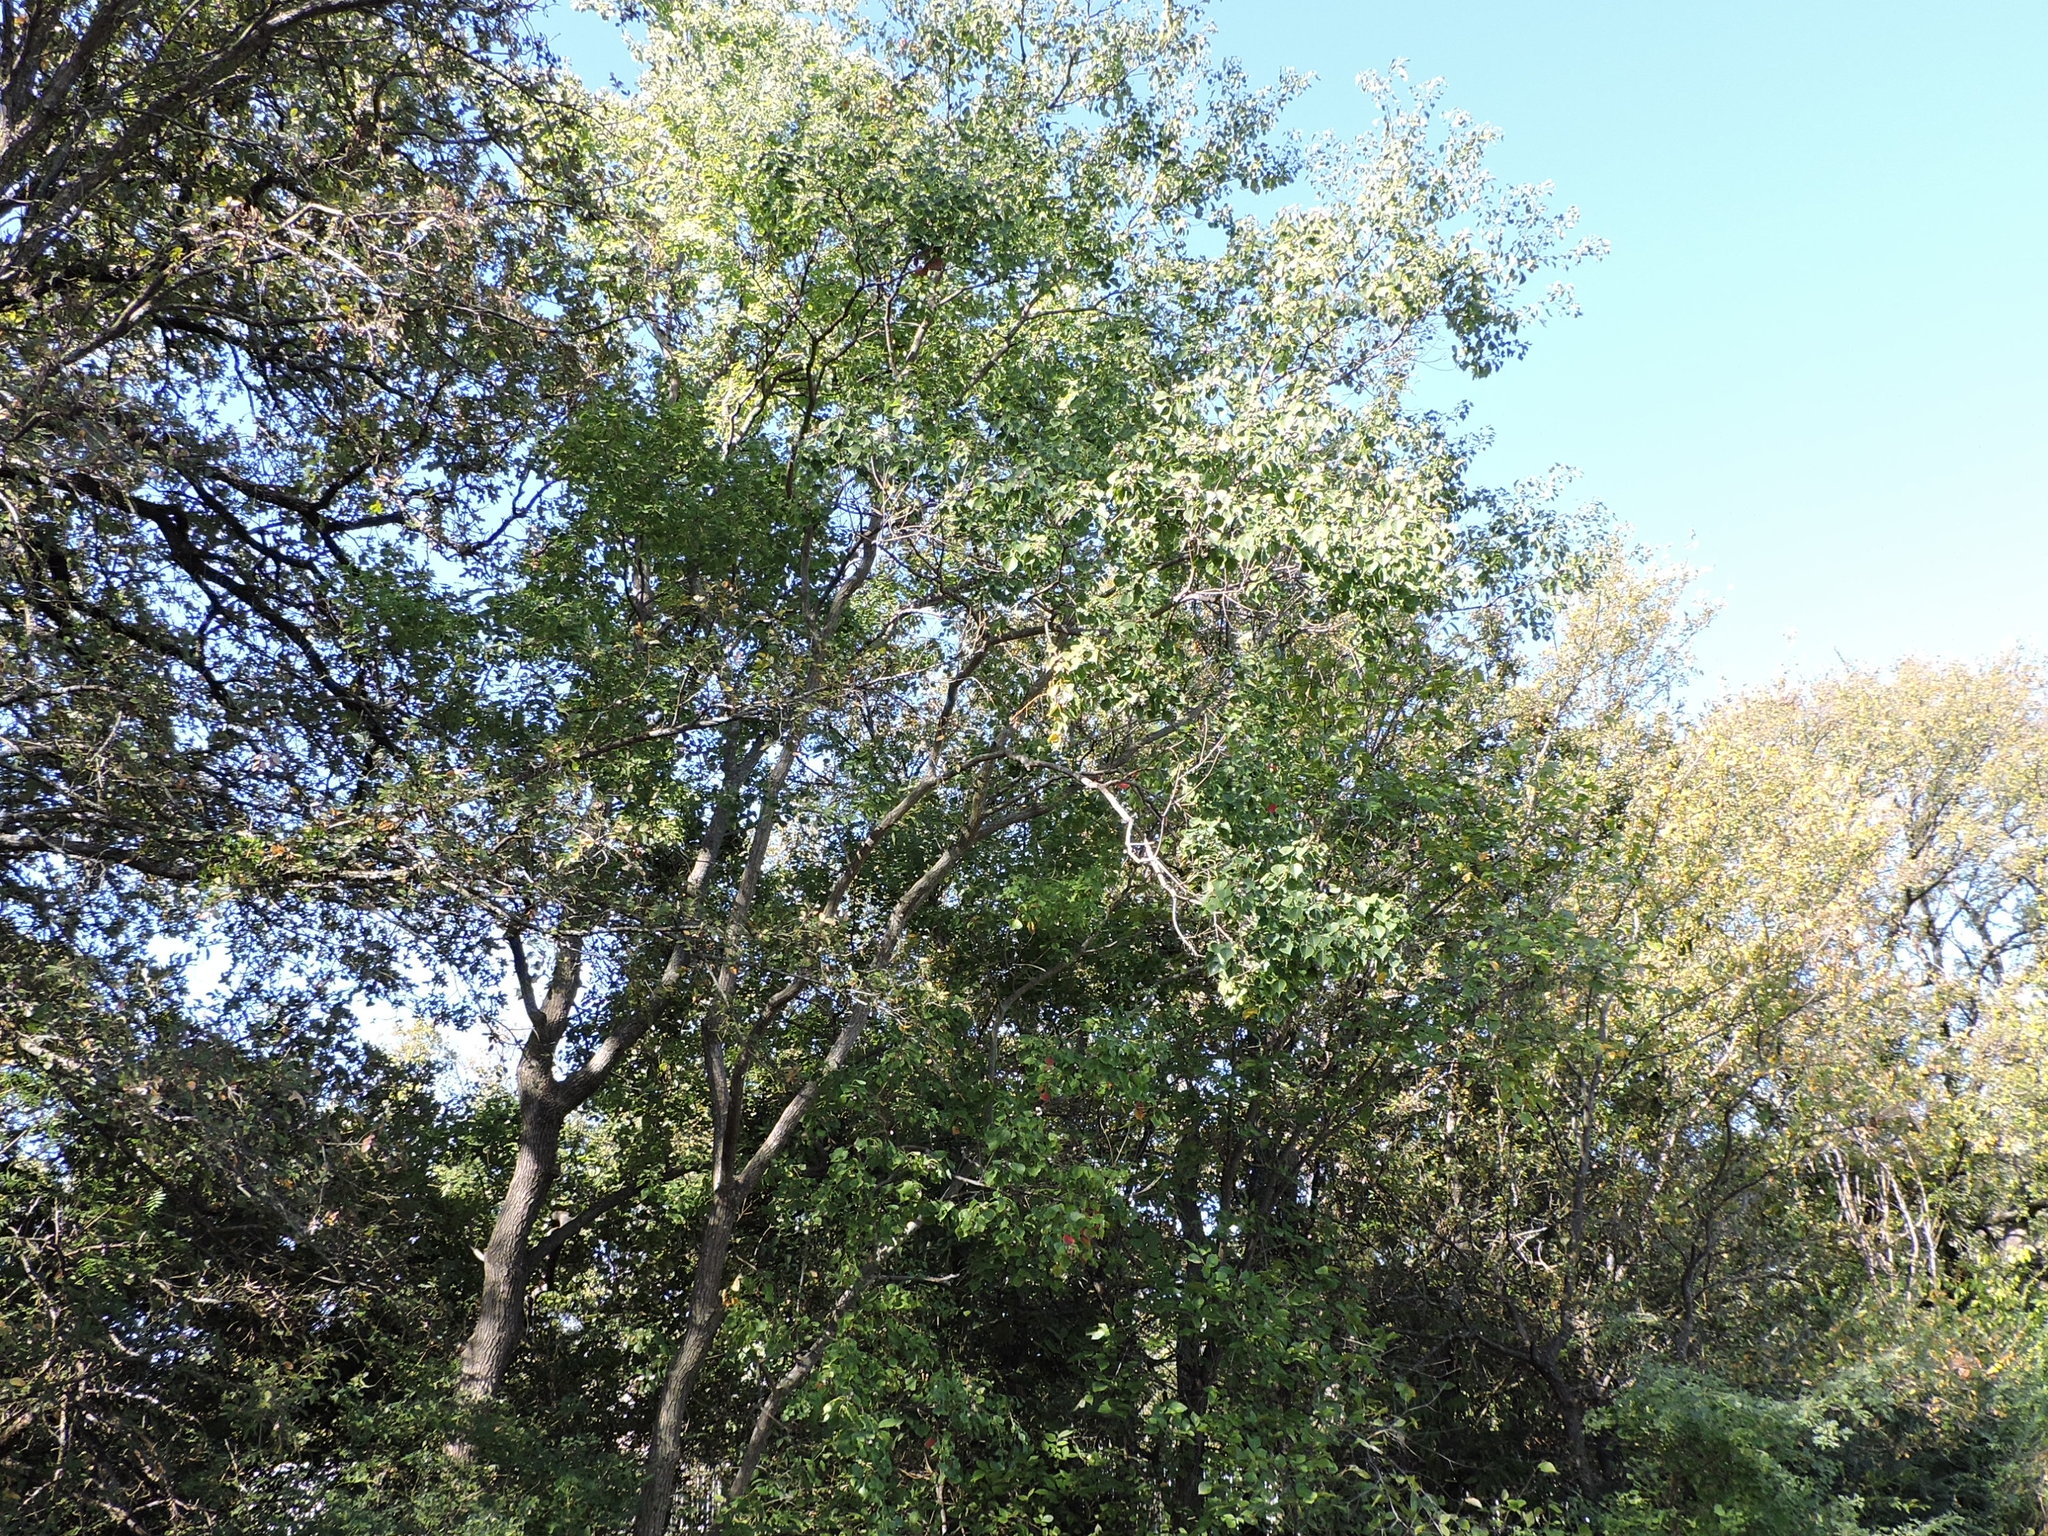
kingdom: Plantae
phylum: Tracheophyta
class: Magnoliopsida
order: Malpighiales
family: Euphorbiaceae
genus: Triadica
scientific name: Triadica sebifera
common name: Chinese tallow
